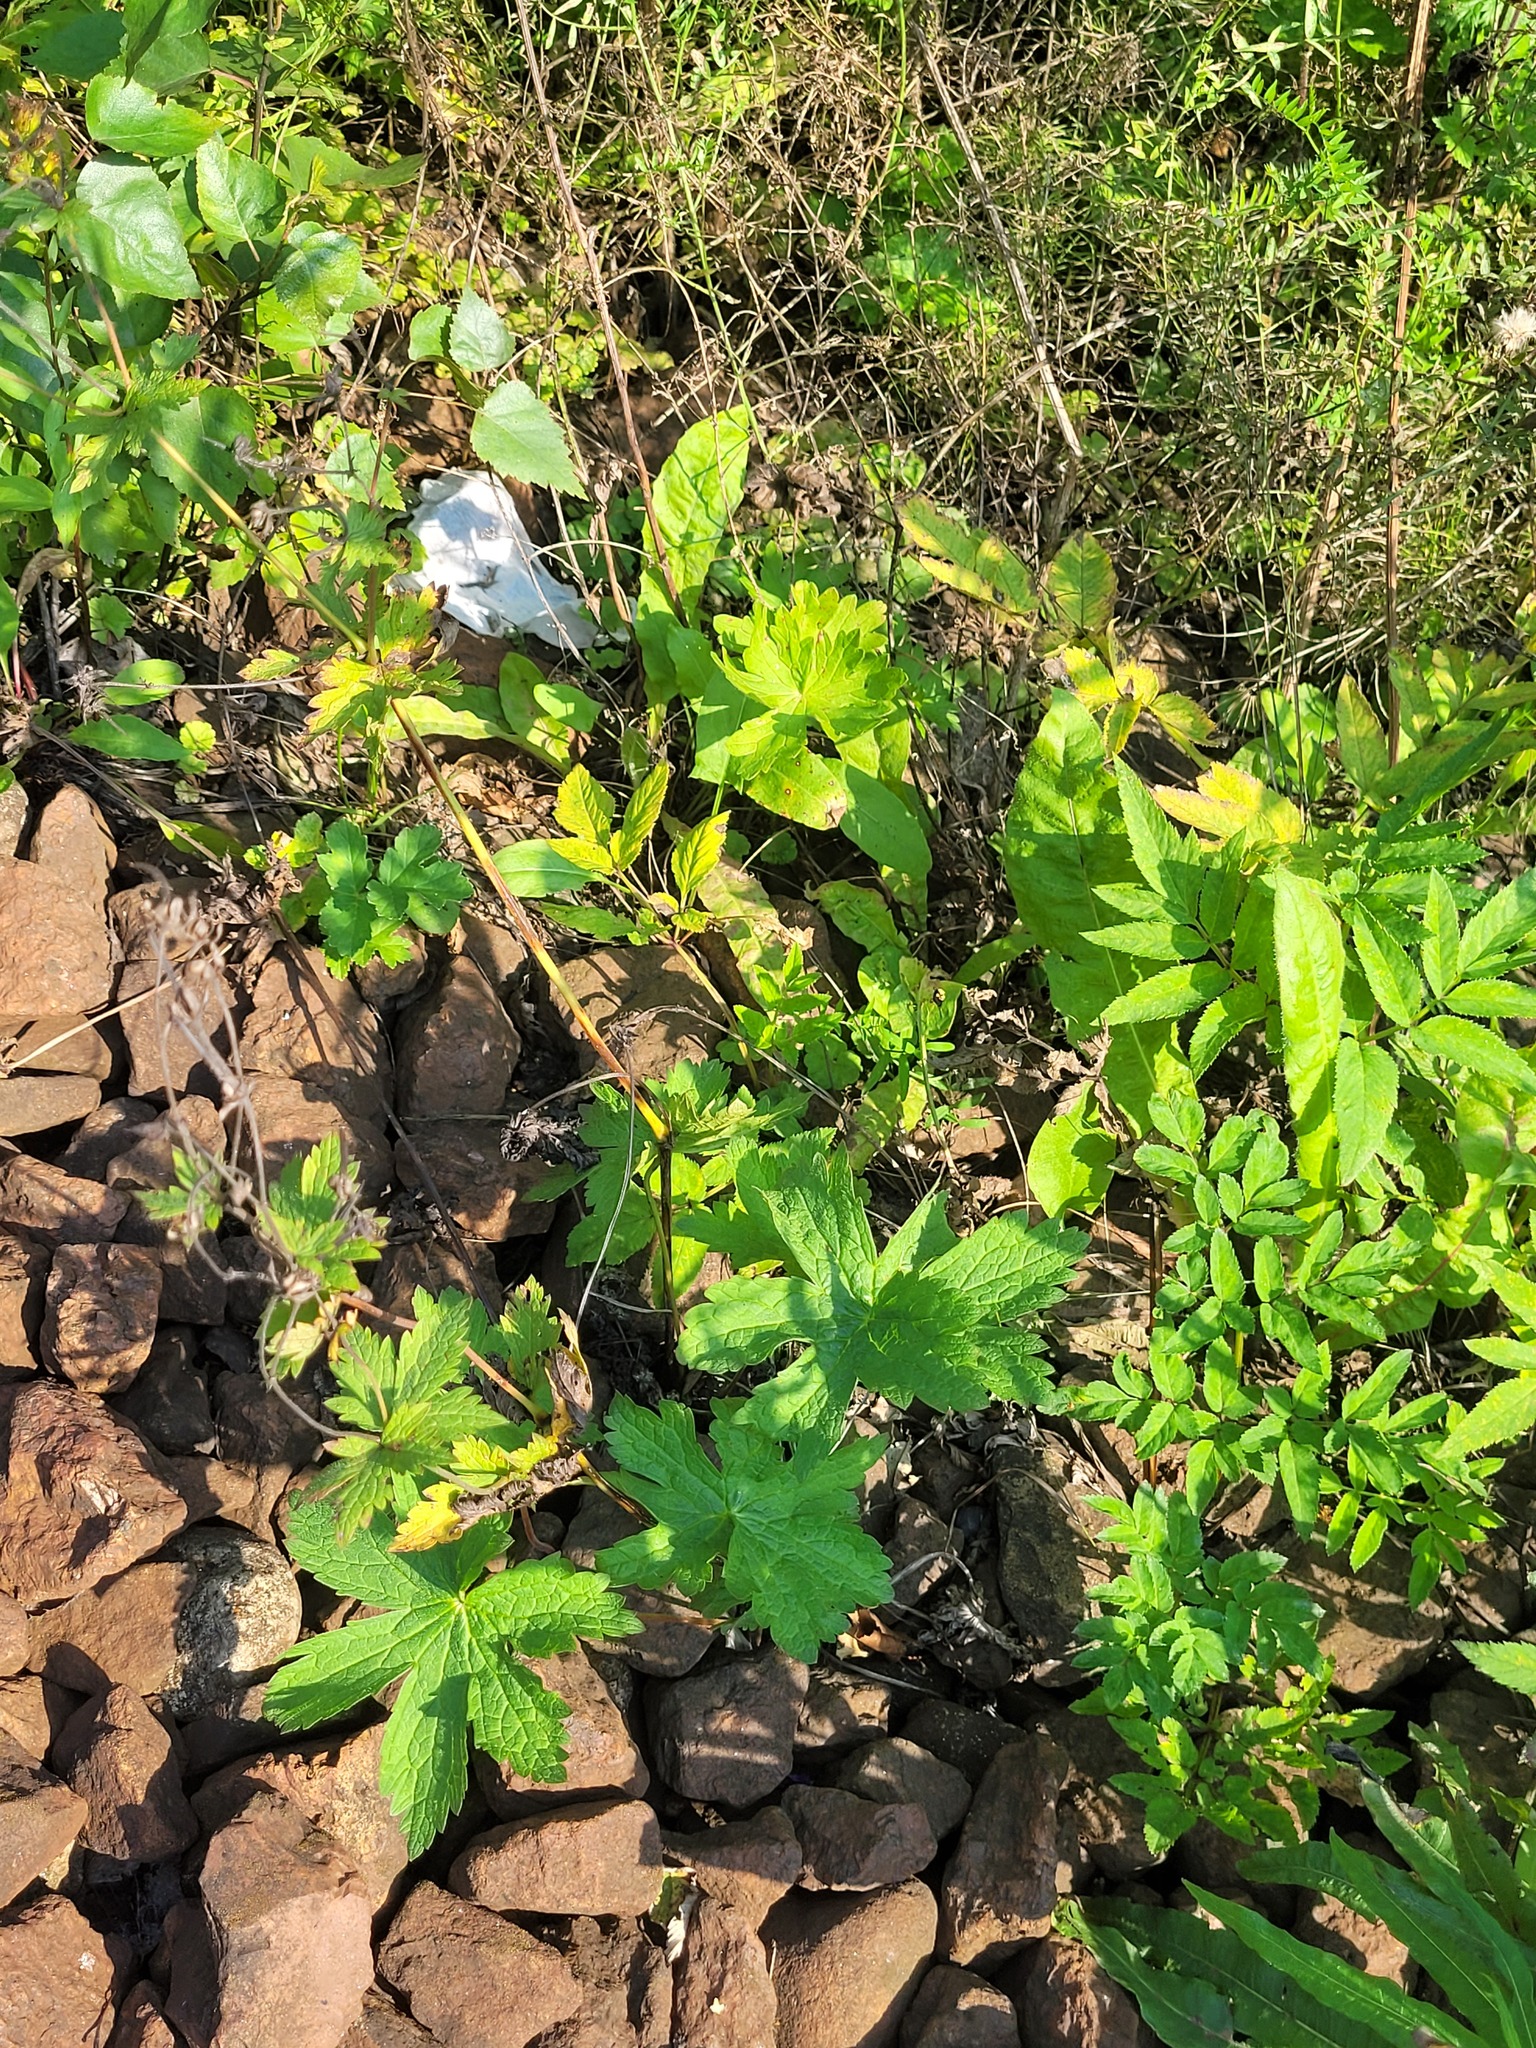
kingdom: Plantae
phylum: Tracheophyta
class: Magnoliopsida
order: Geraniales
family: Geraniaceae
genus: Geranium
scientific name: Geranium sylvaticum
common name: Wood crane's-bill
